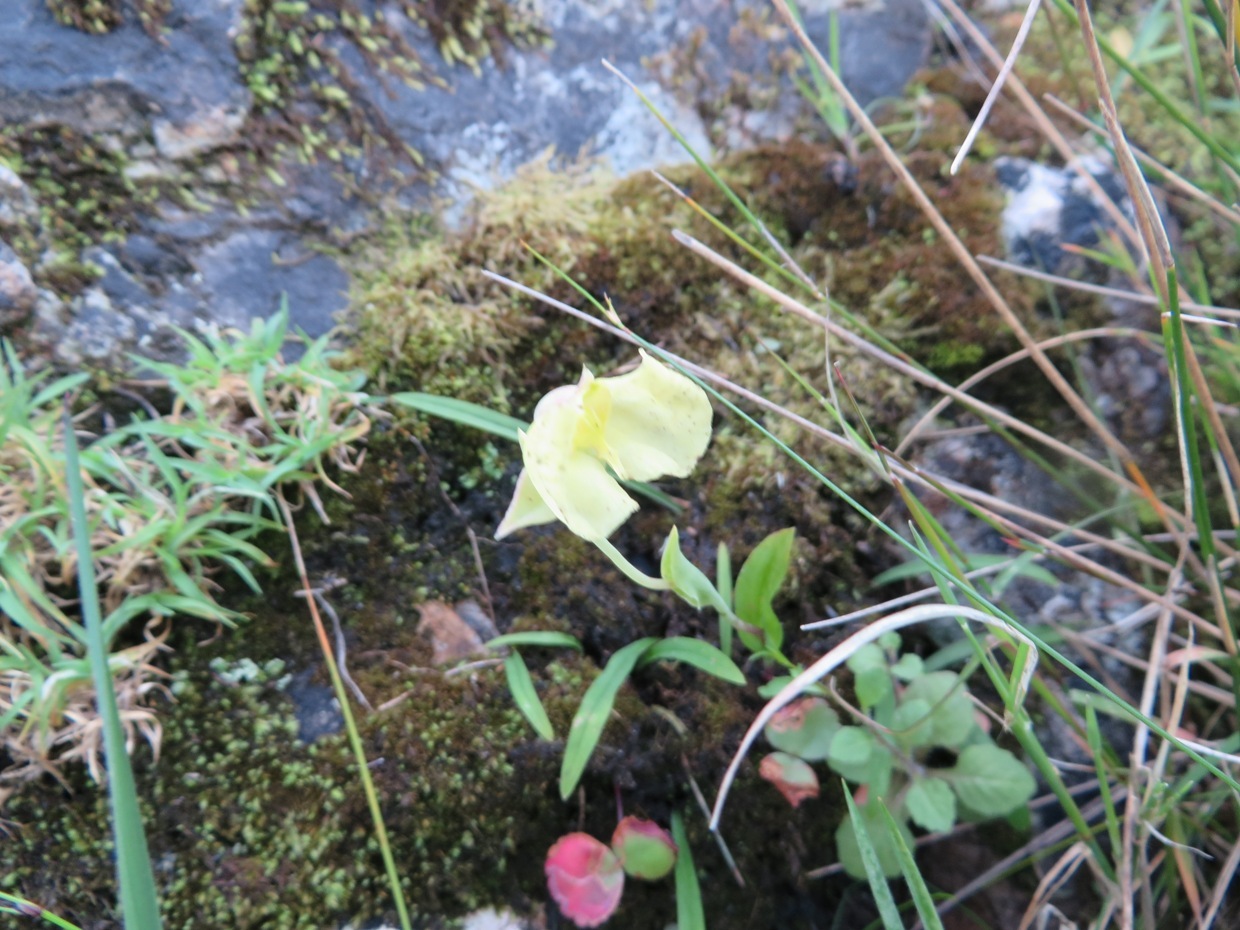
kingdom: Plantae
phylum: Tracheophyta
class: Liliopsida
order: Asparagales
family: Orchidaceae
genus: Pterygodium
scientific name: Pterygodium platypetalum
